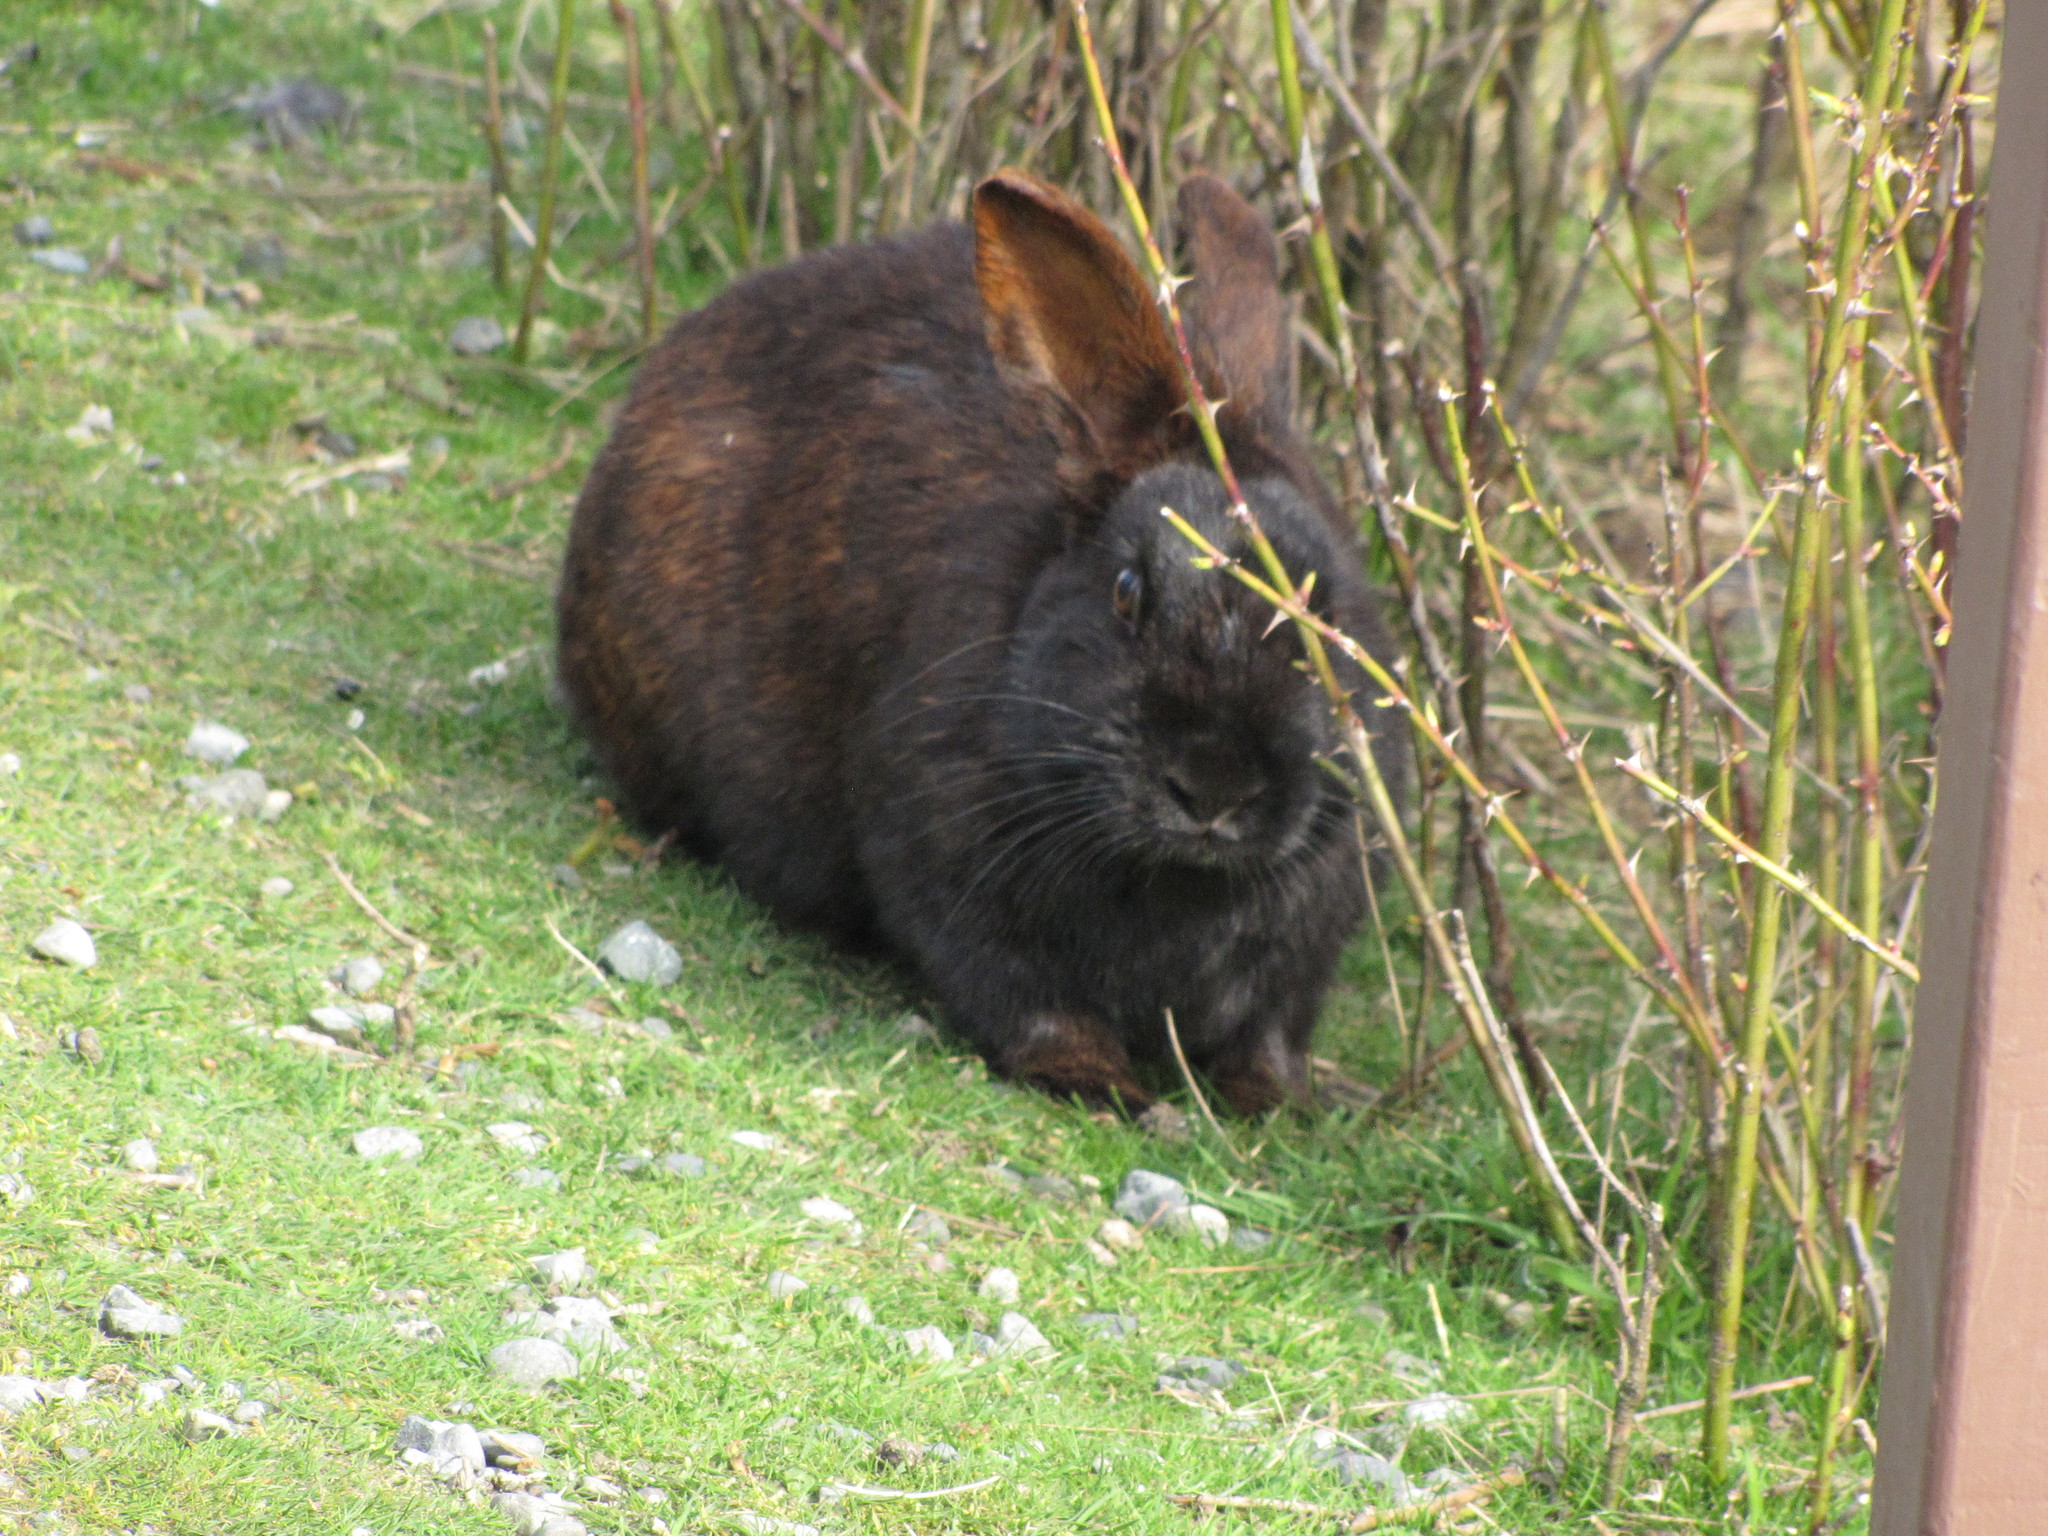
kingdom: Animalia
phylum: Chordata
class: Mammalia
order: Lagomorpha
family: Leporidae
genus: Oryctolagus
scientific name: Oryctolagus cuniculus
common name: European rabbit
